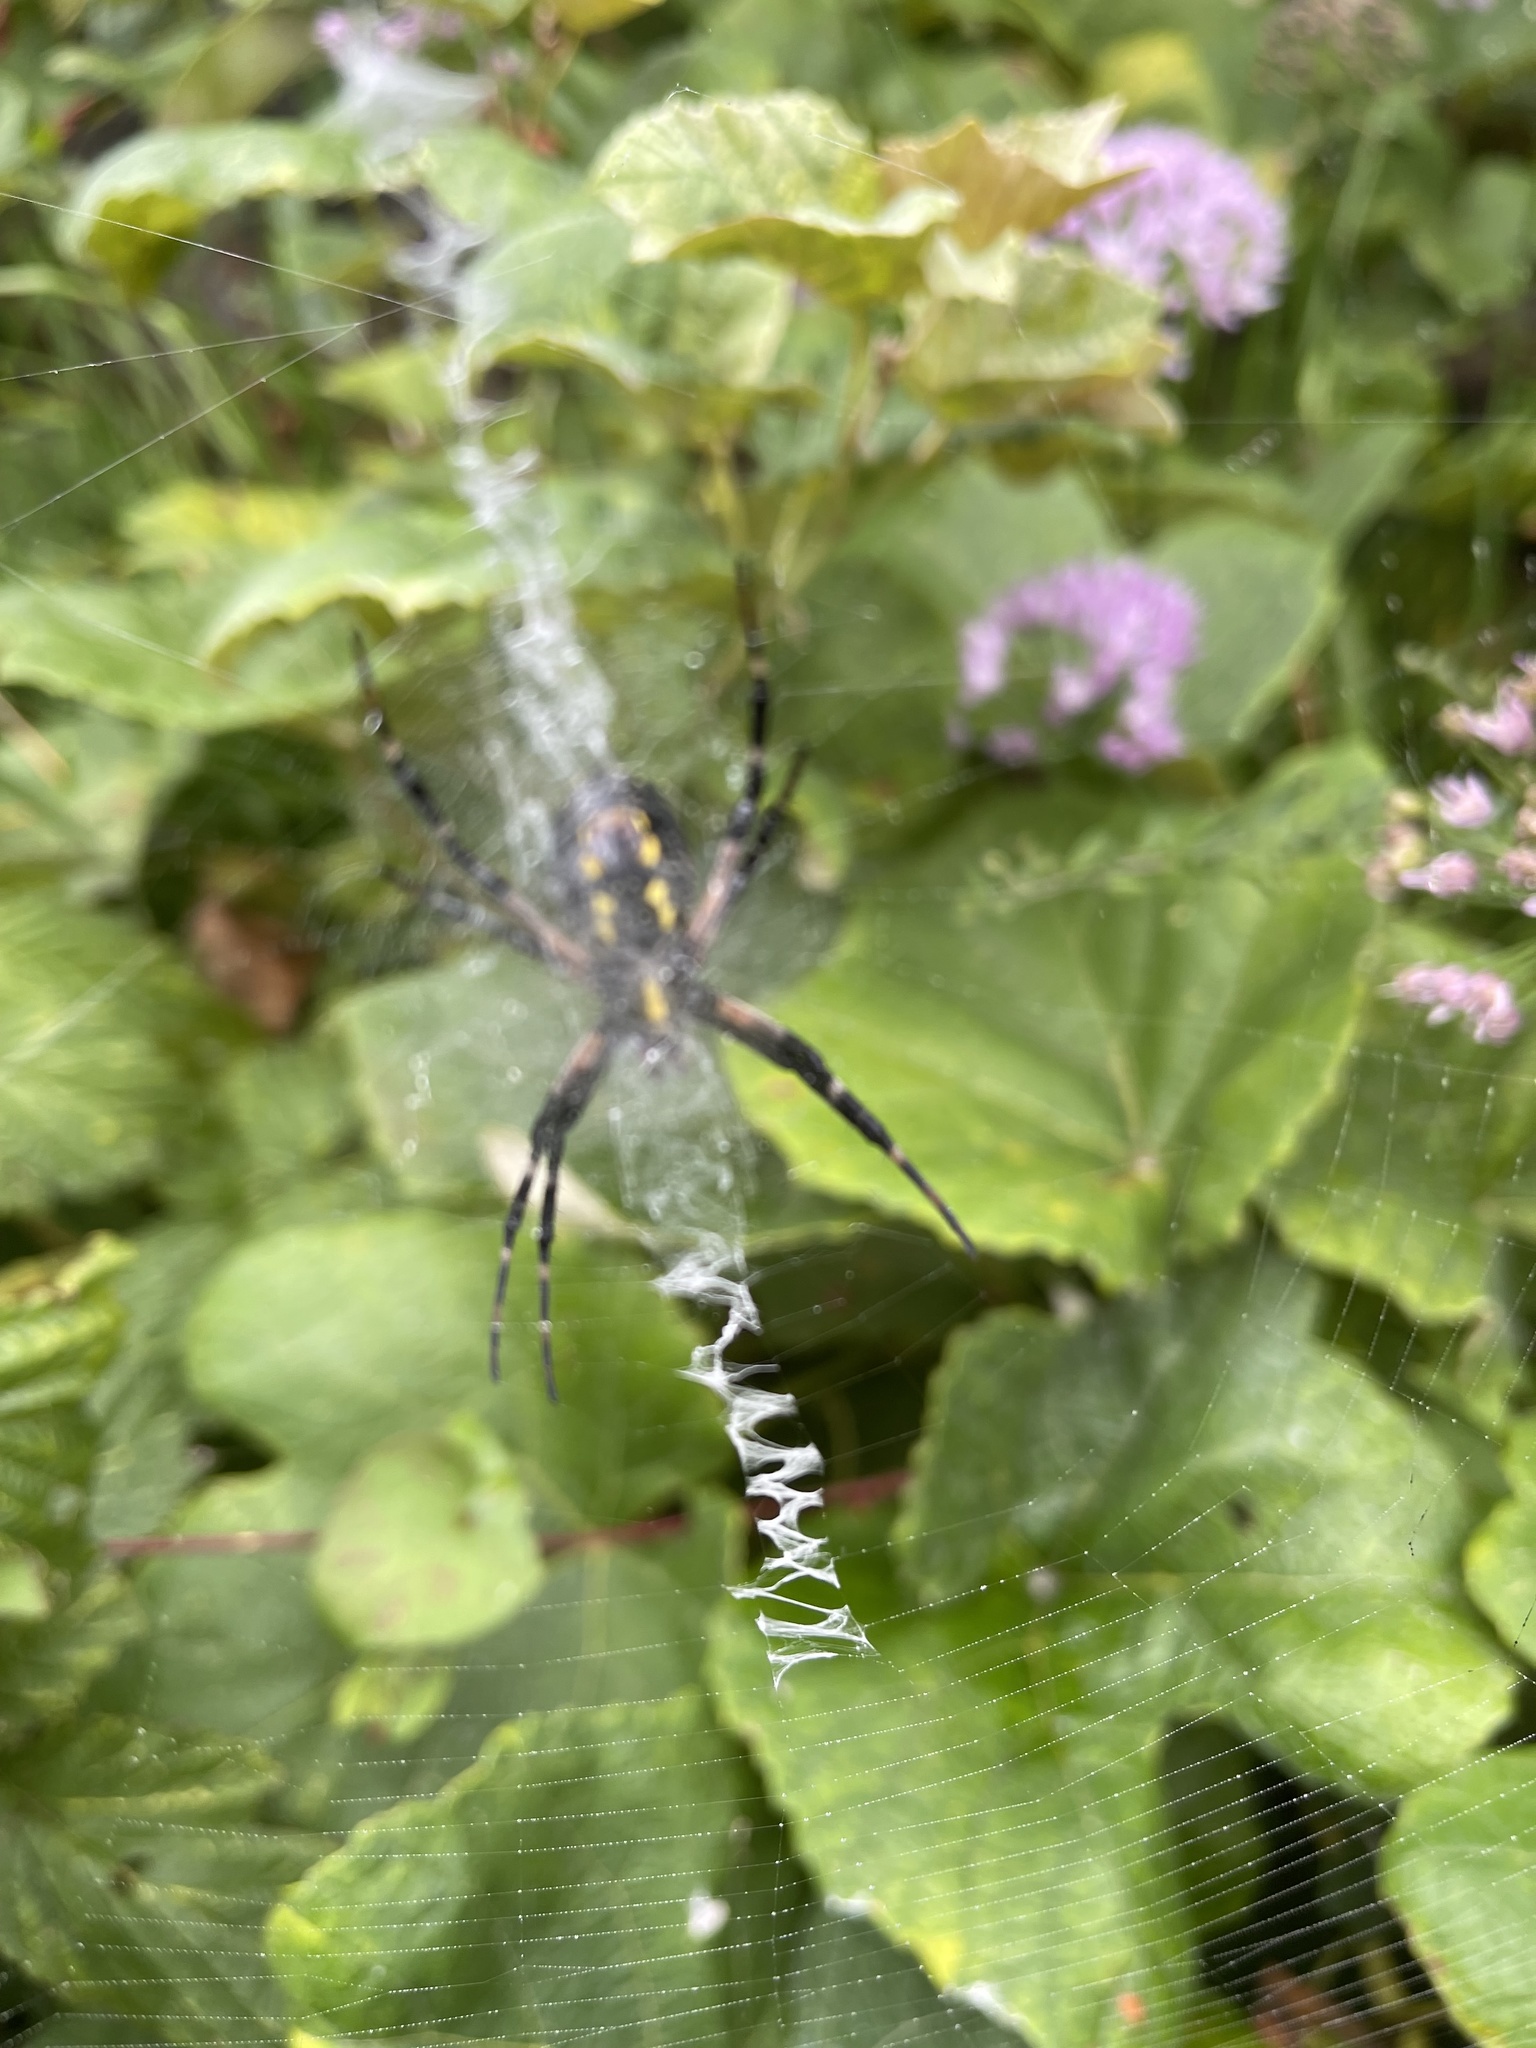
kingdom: Animalia
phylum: Arthropoda
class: Arachnida
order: Araneae
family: Araneidae
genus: Argiope
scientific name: Argiope aurantia
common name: Orb weavers
